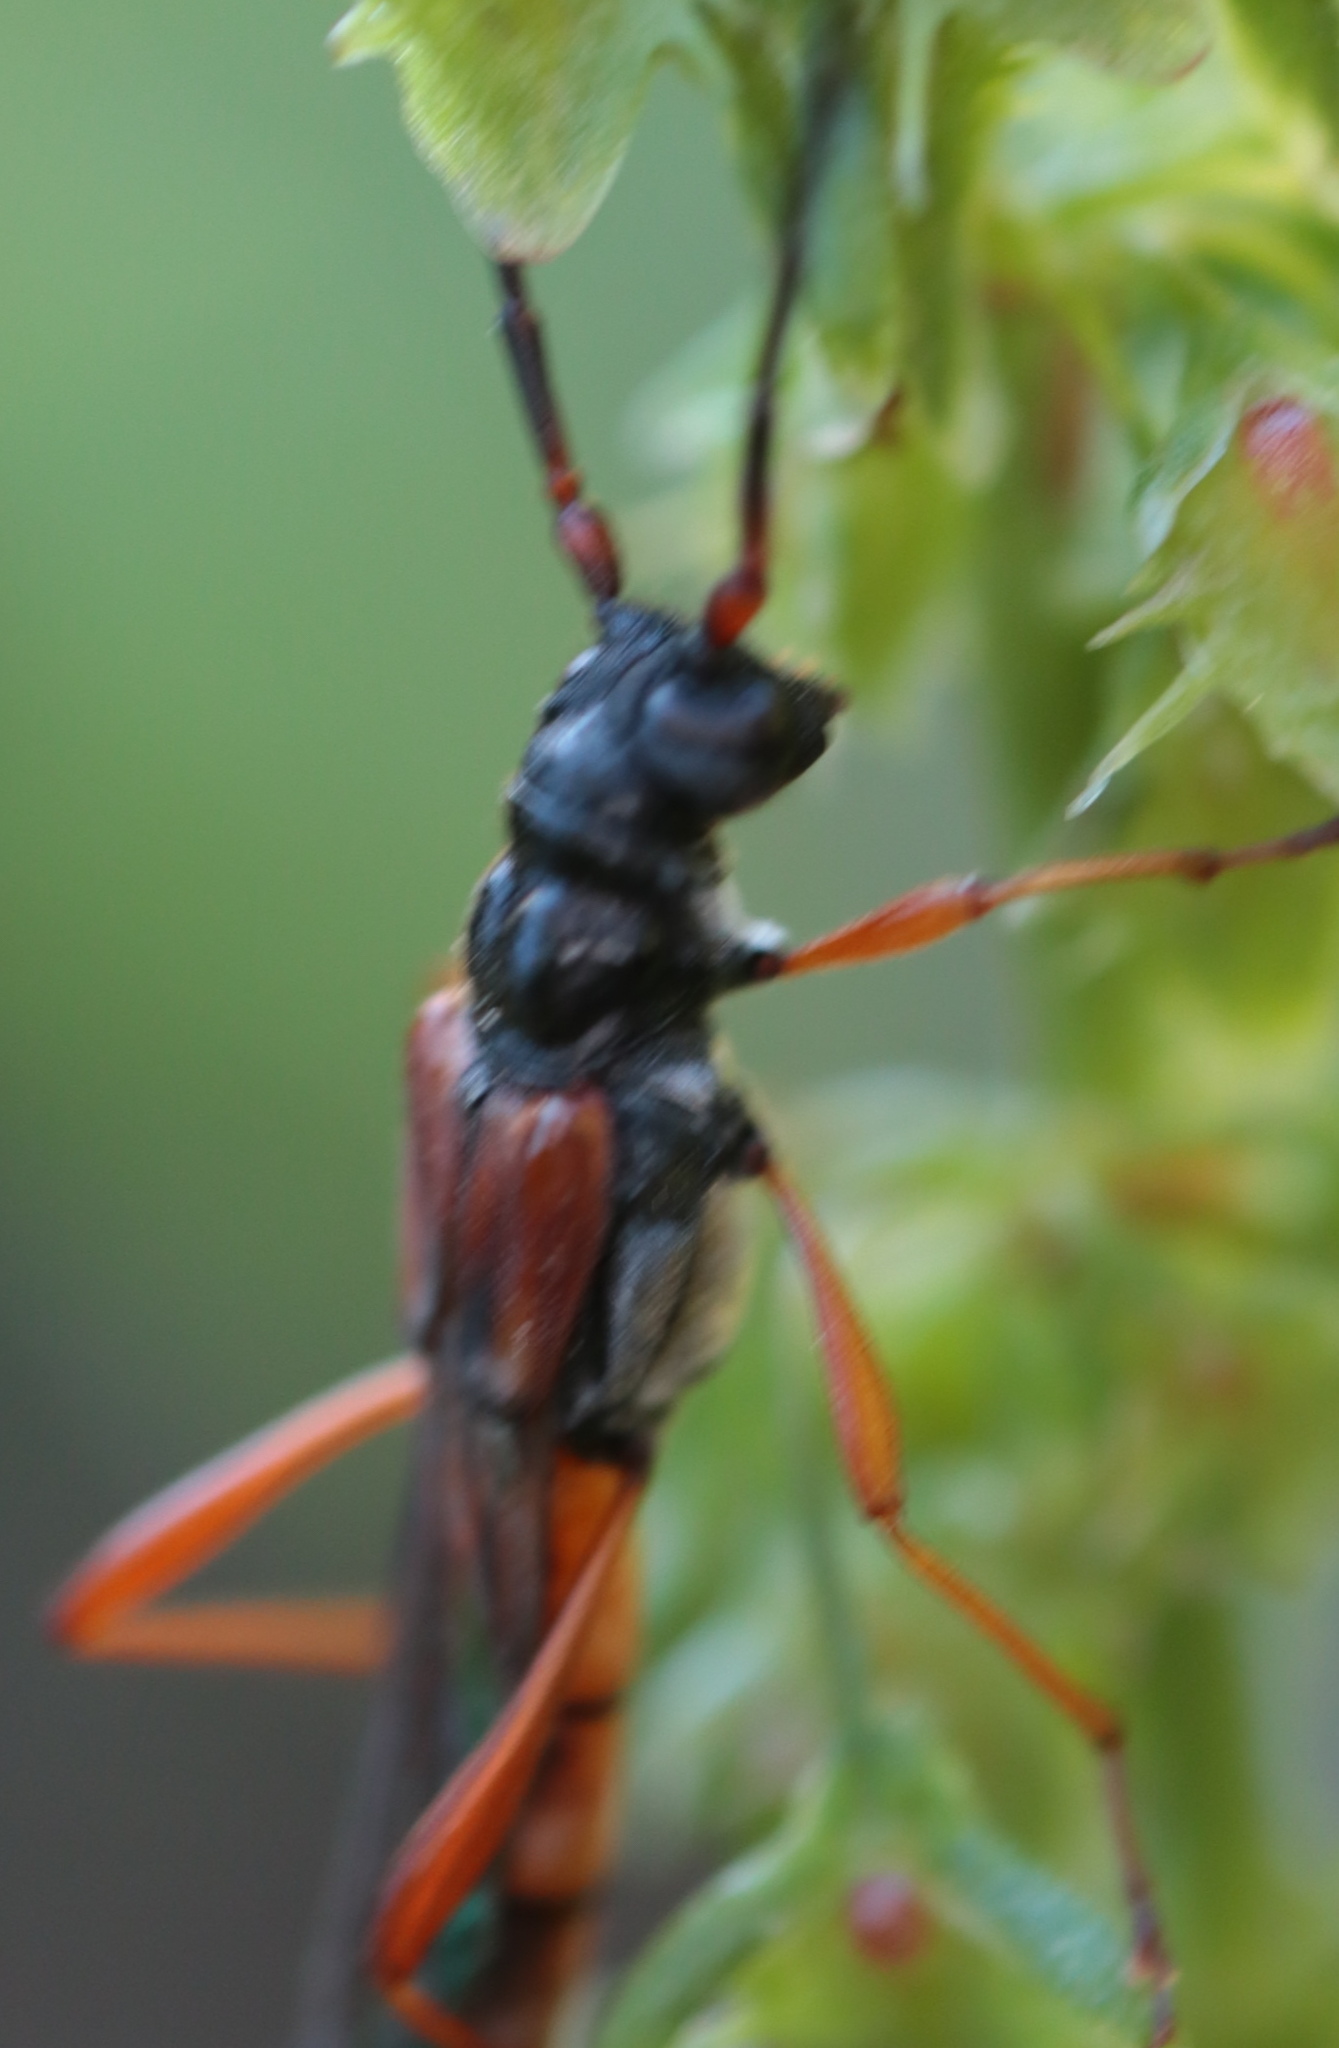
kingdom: Animalia
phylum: Arthropoda
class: Insecta
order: Coleoptera
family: Cerambycidae
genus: Necydalis
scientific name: Necydalis mellita
